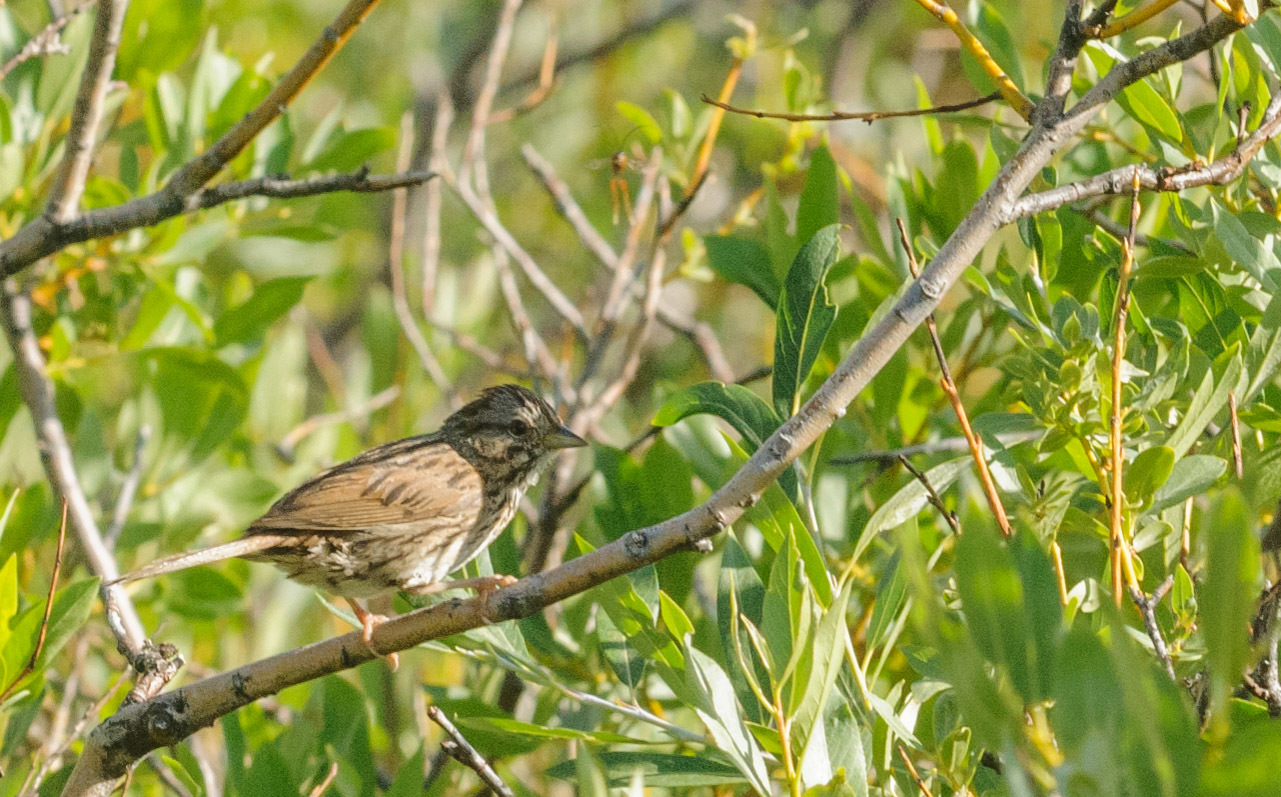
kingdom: Animalia
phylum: Chordata
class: Aves
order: Passeriformes
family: Passerellidae
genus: Melospiza
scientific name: Melospiza lincolnii
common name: Lincoln's sparrow
